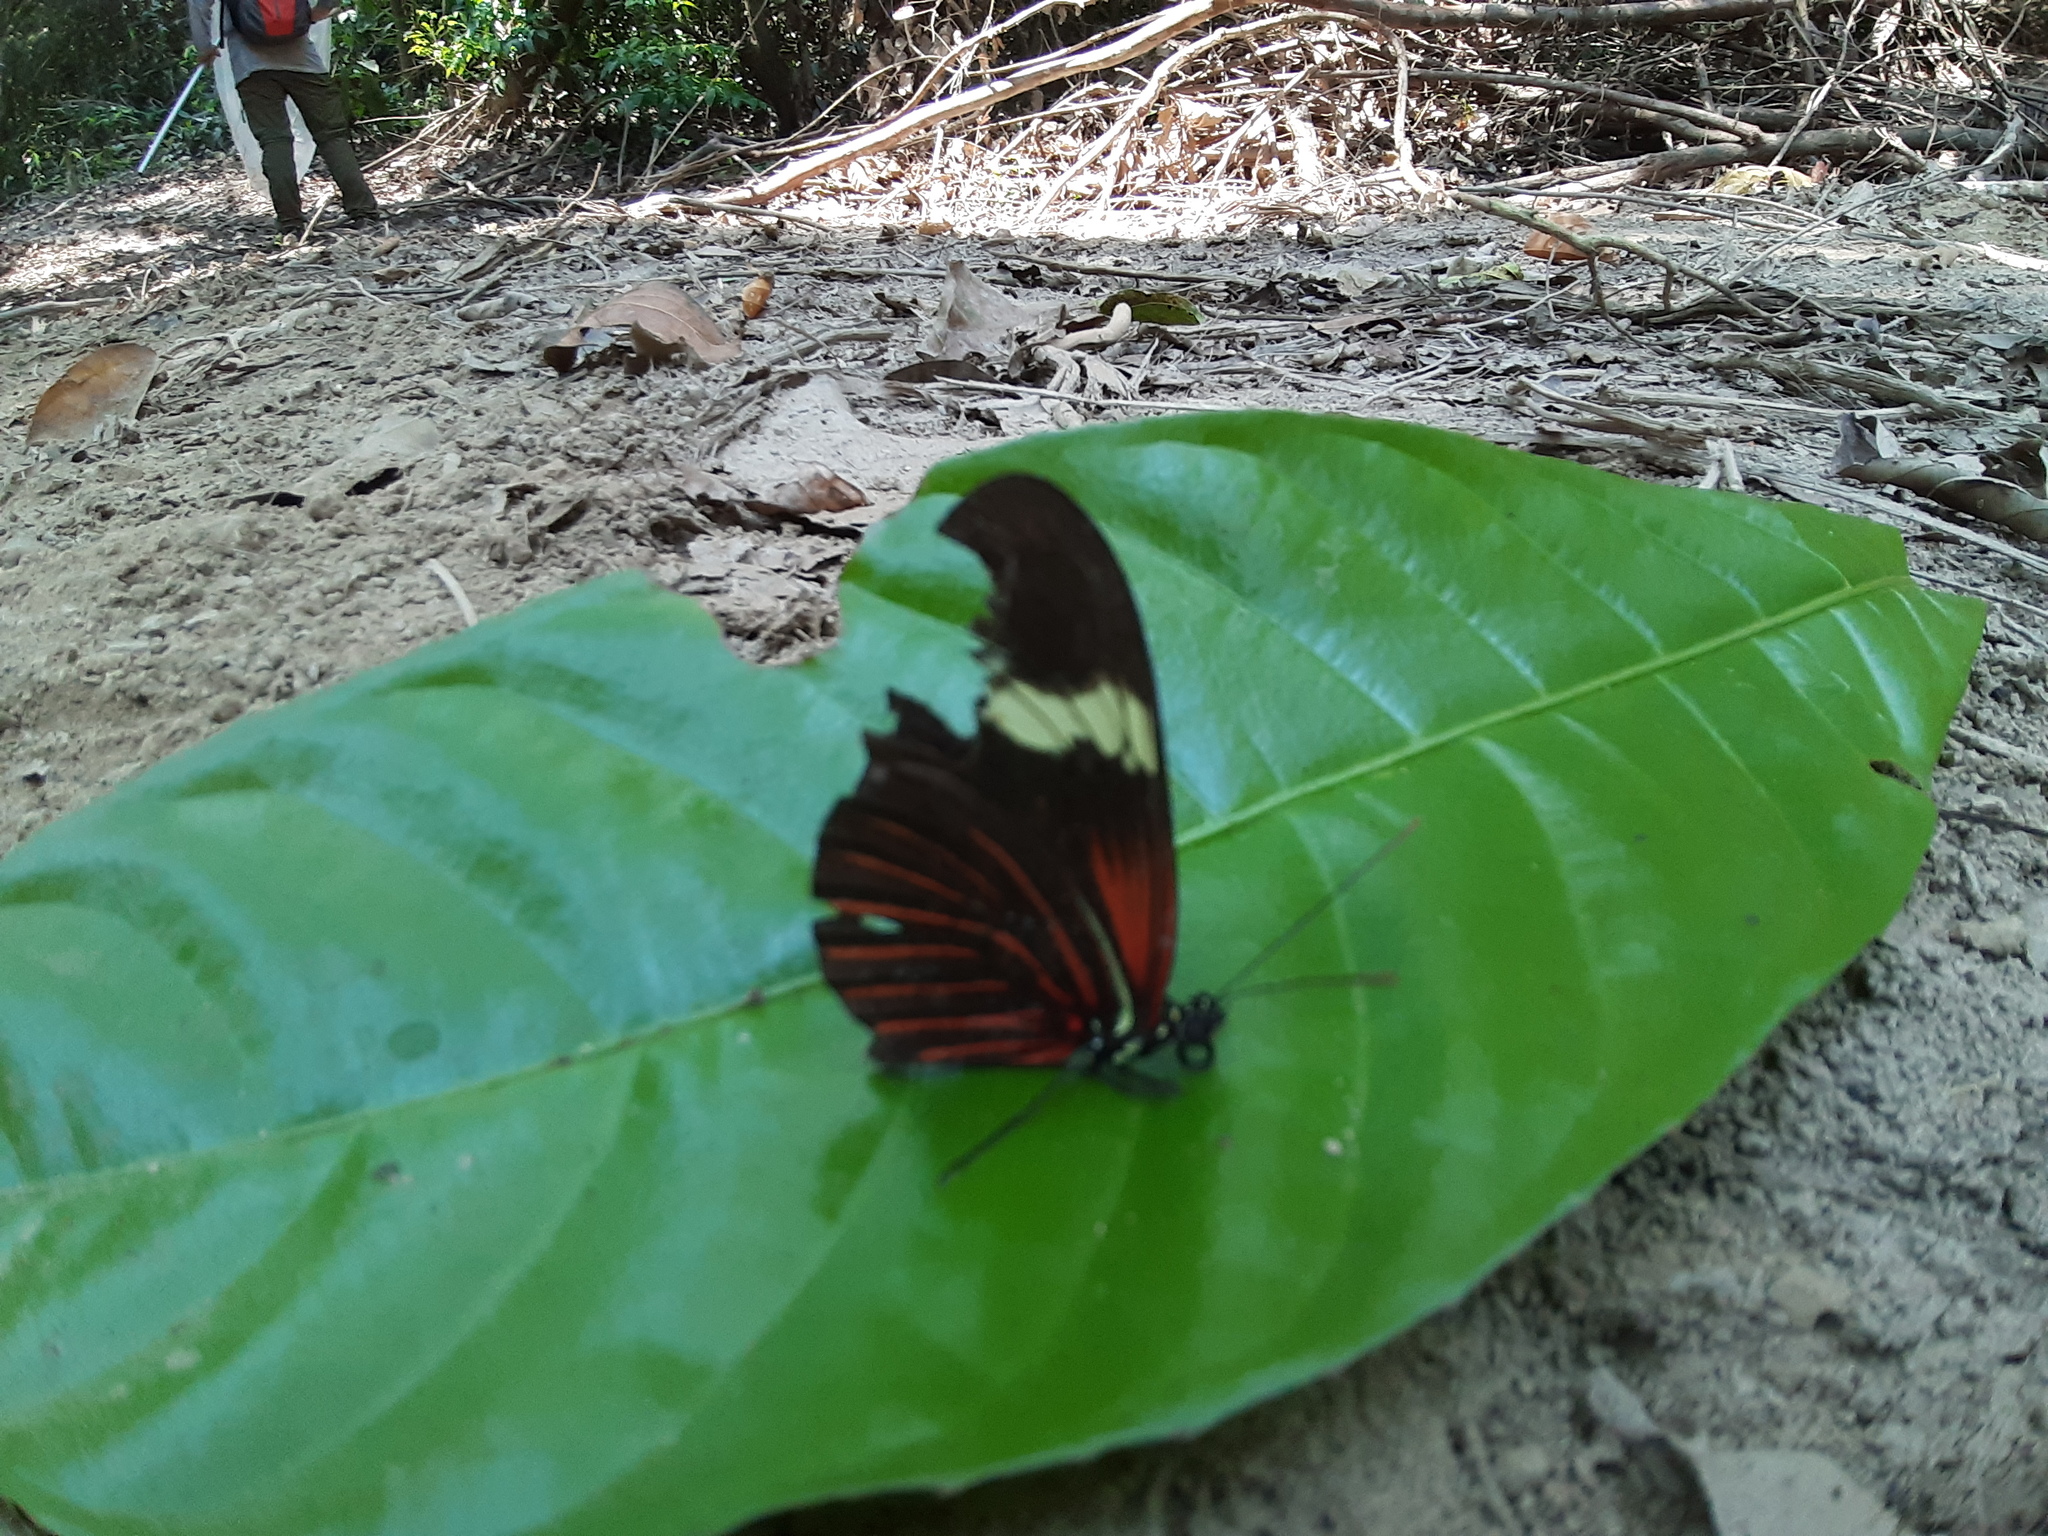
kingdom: Animalia
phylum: Arthropoda
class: Insecta
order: Lepidoptera
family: Nymphalidae
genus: Heliconius
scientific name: Heliconius erato
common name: Common patch longwing
